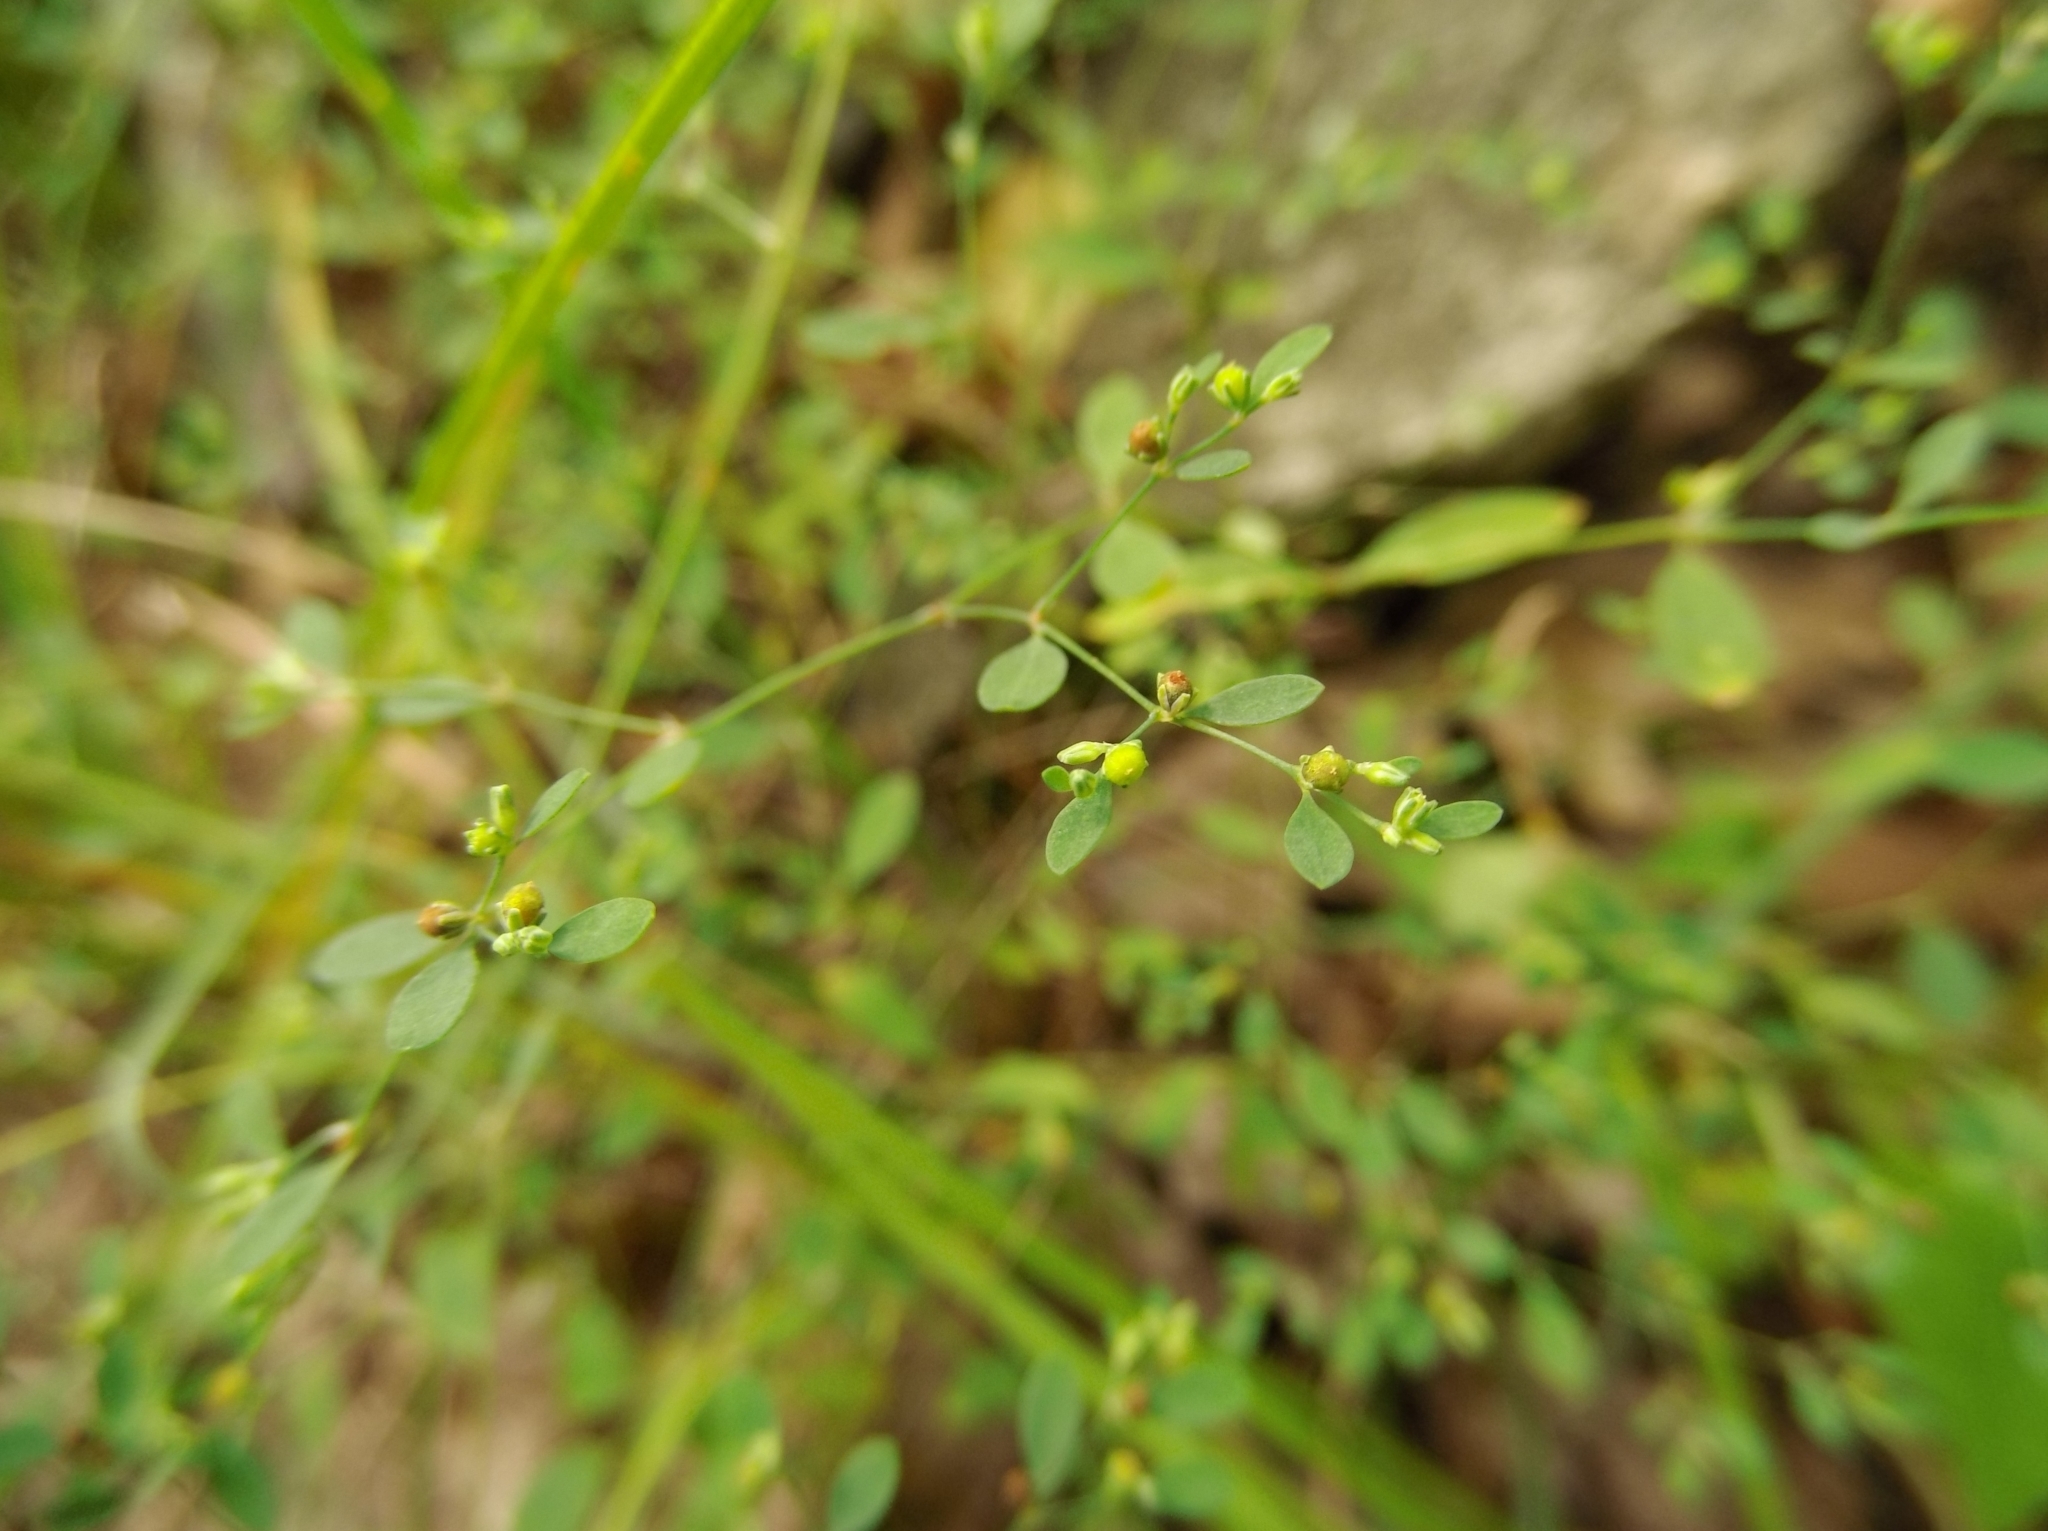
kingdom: Plantae
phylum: Tracheophyta
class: Magnoliopsida
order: Caryophyllales
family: Caryophyllaceae
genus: Paronychia
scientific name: Paronychia canadensis
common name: Canada forked nailwort
